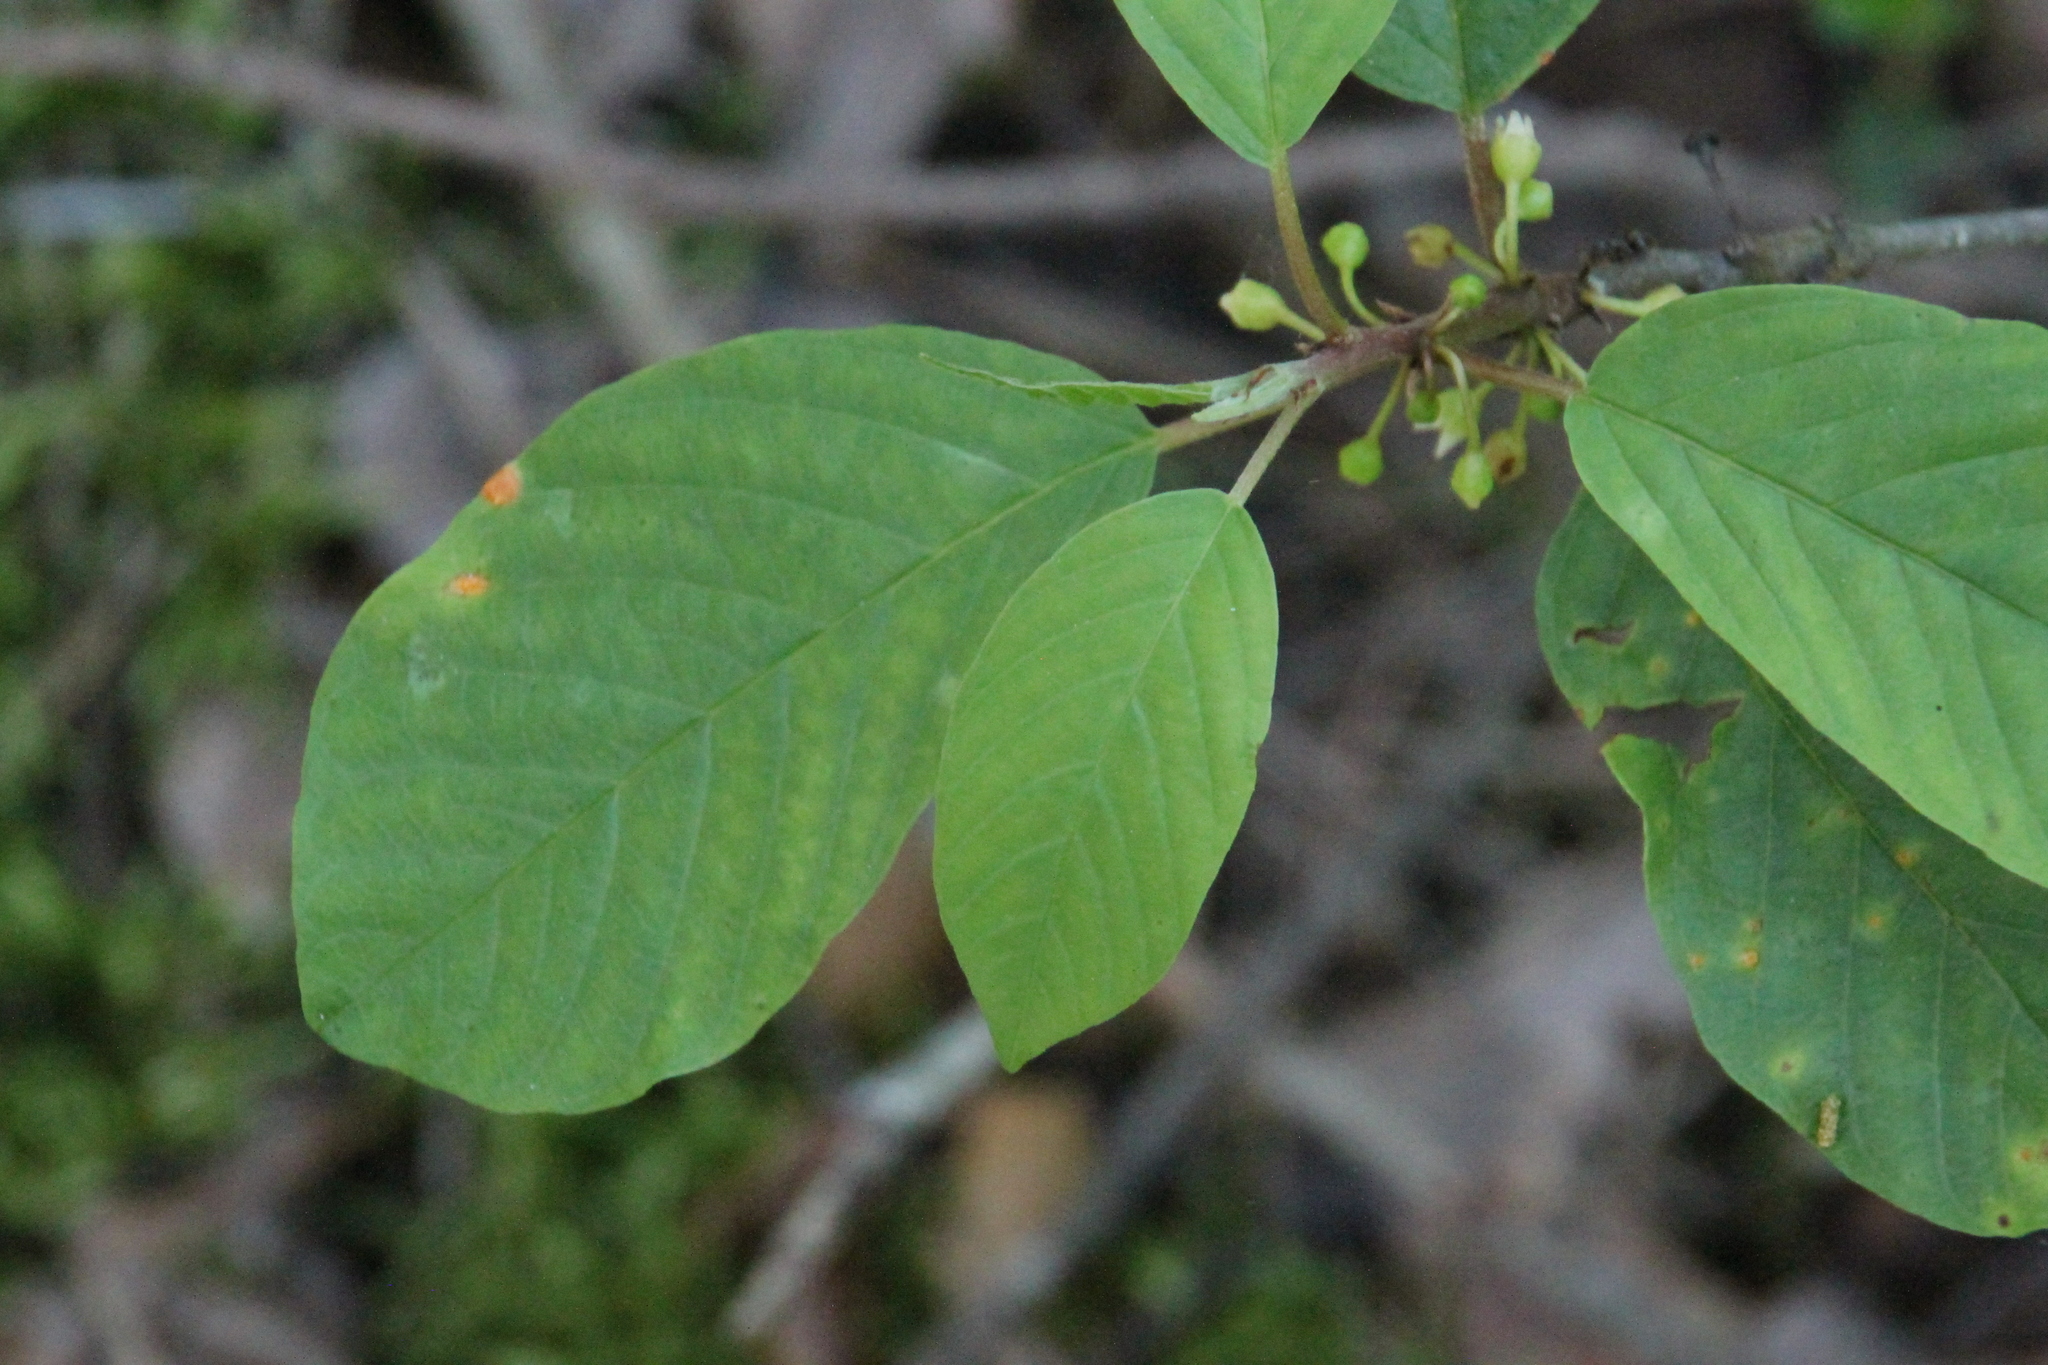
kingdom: Plantae
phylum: Tracheophyta
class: Magnoliopsida
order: Rosales
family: Rhamnaceae
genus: Frangula
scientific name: Frangula alnus
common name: Alder buckthorn
